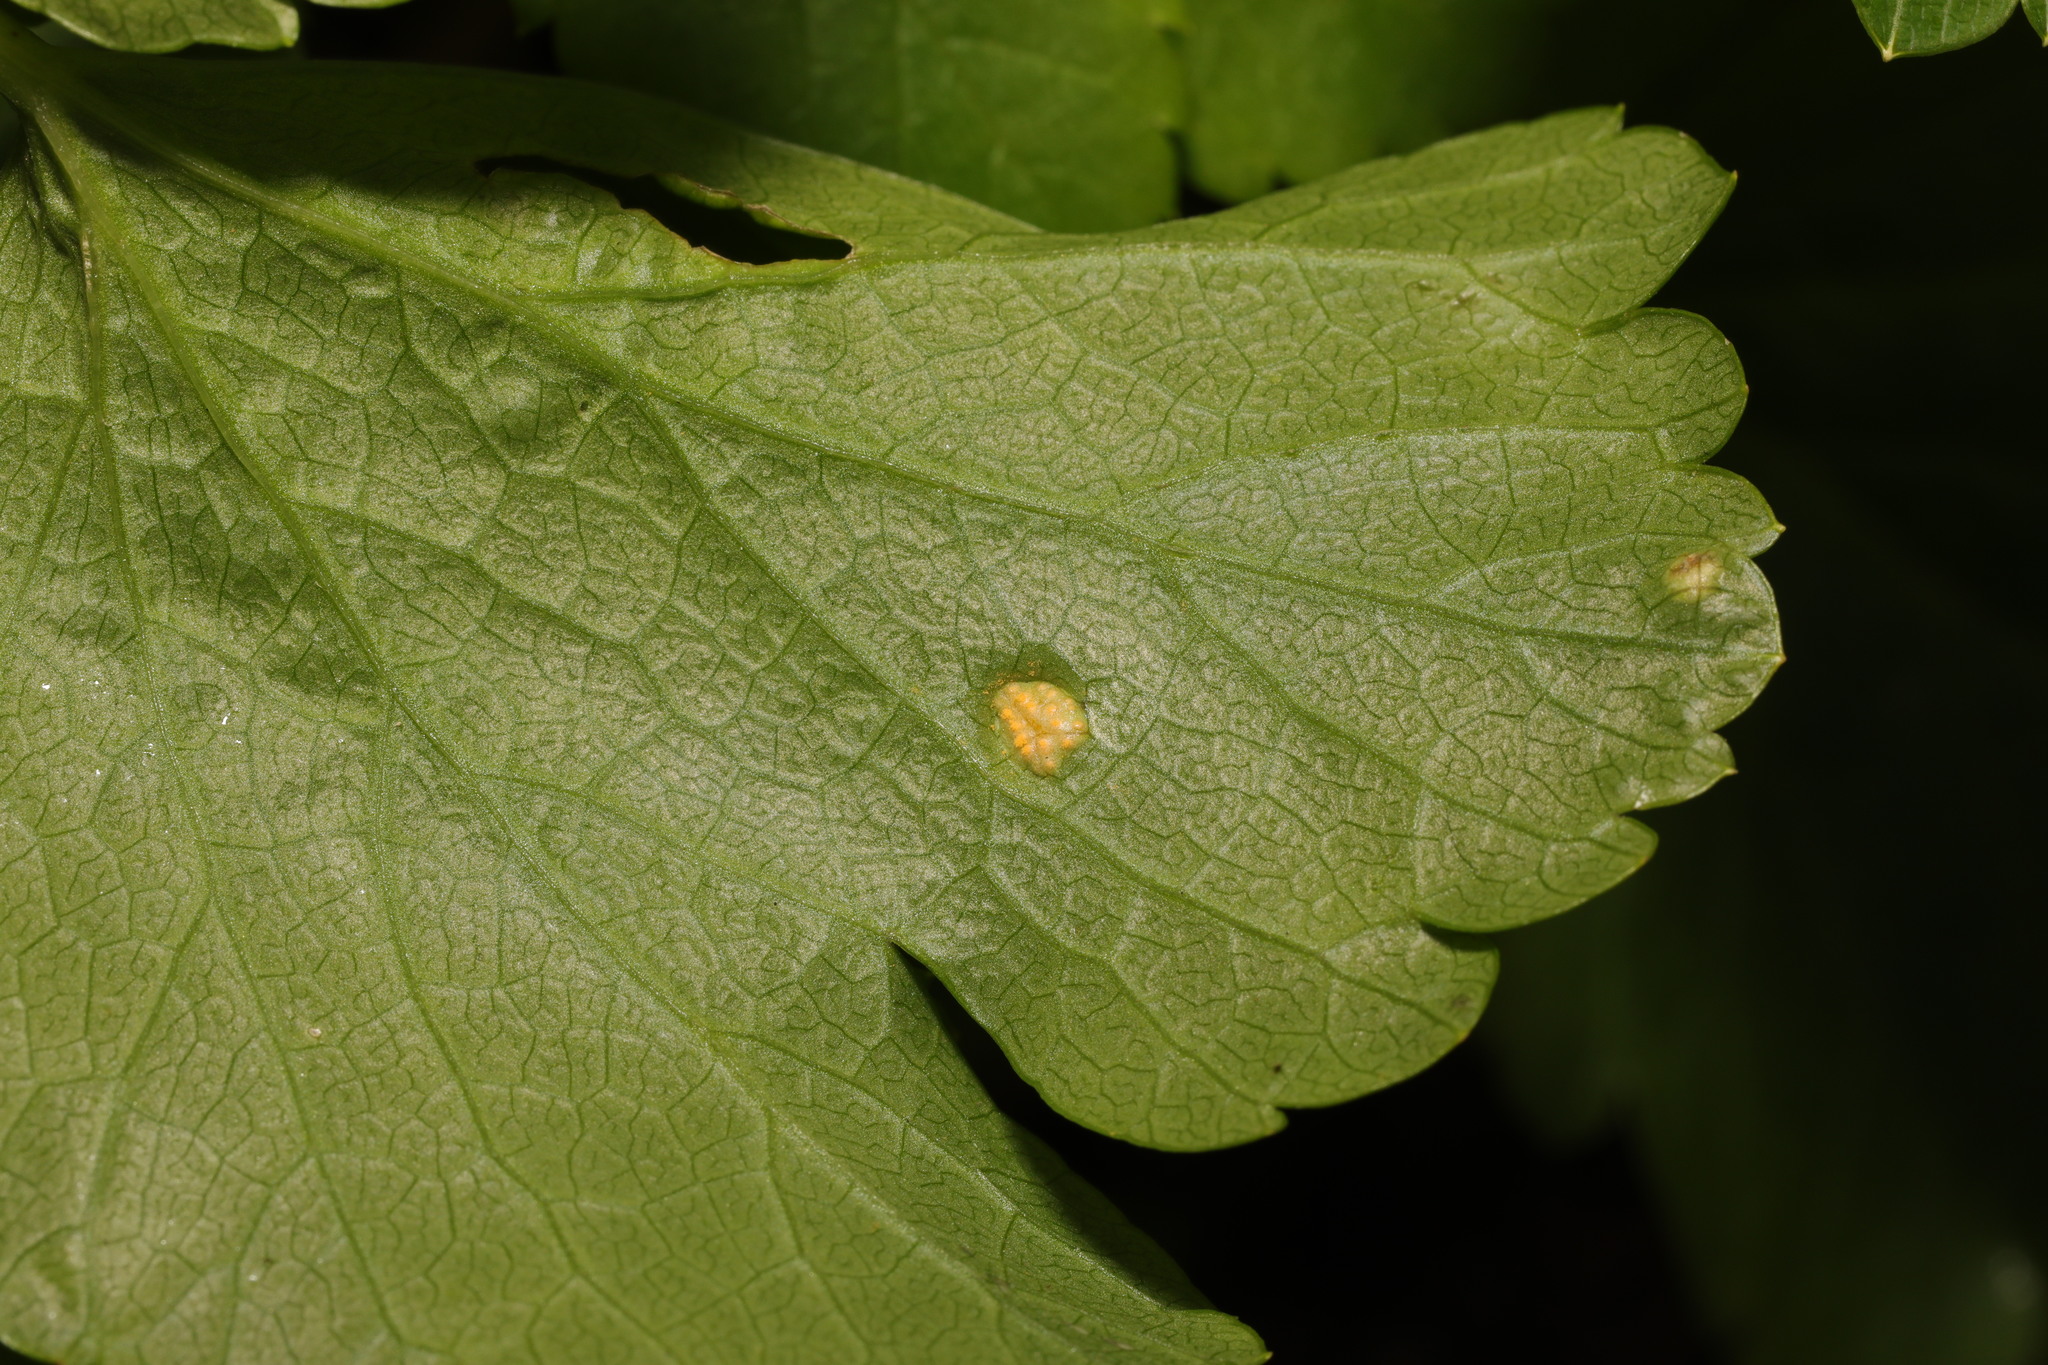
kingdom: Fungi
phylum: Basidiomycota
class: Pucciniomycetes
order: Pucciniales
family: Pucciniaceae
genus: Puccinia
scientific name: Puccinia smyrnii
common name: Alexanders rust
